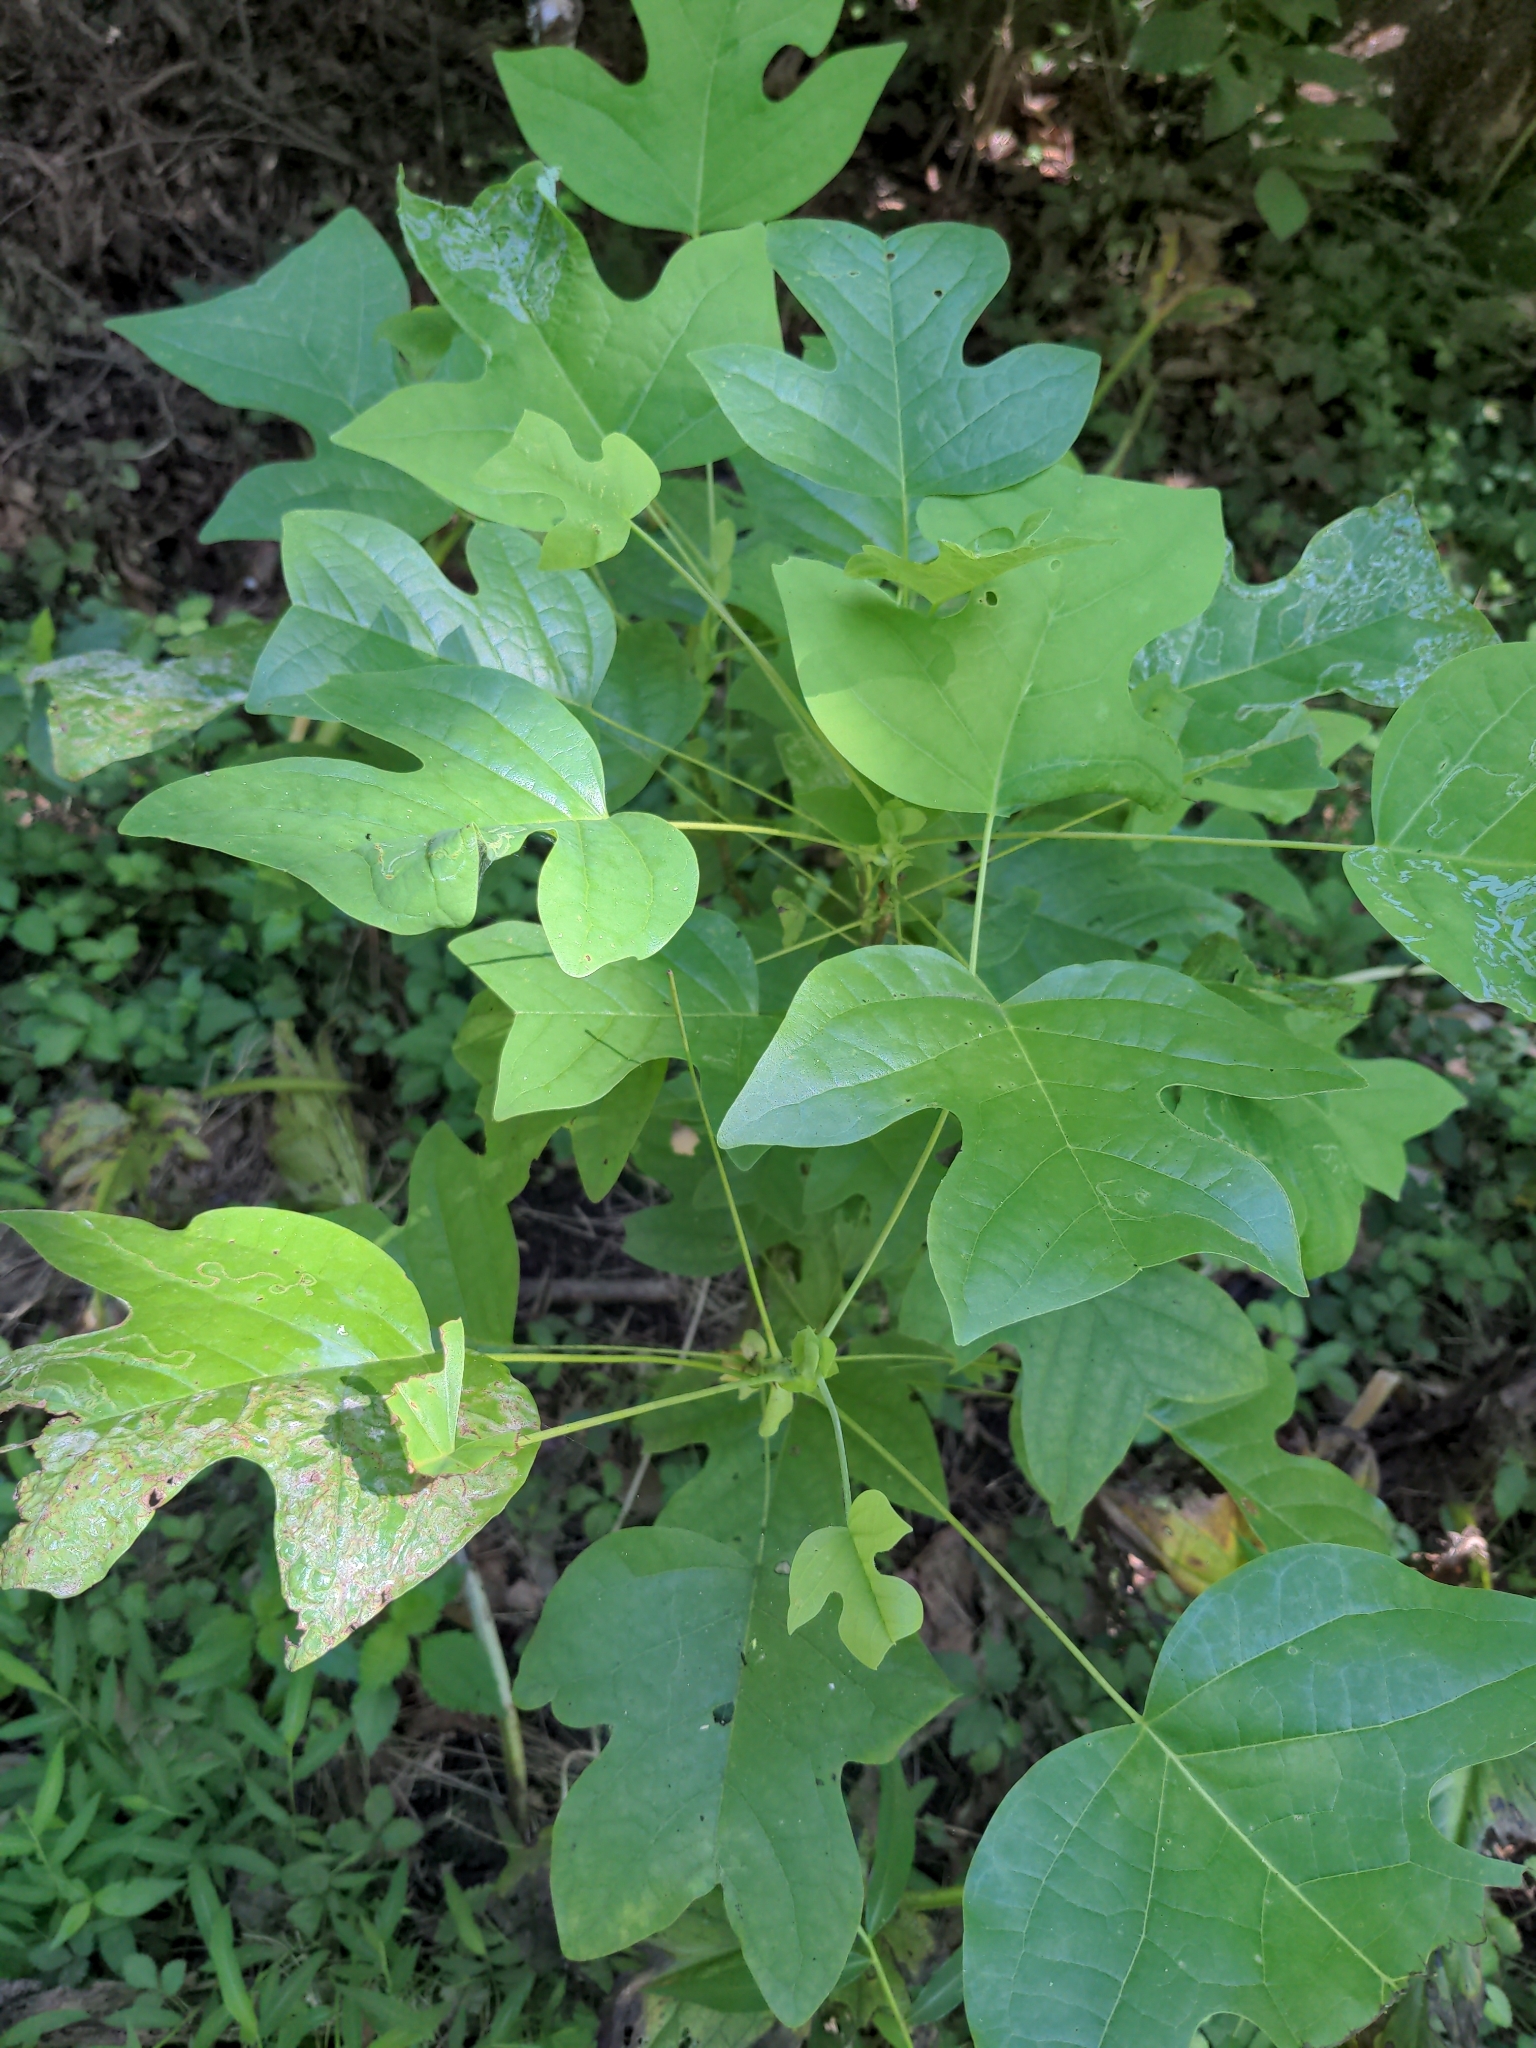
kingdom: Plantae
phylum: Tracheophyta
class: Magnoliopsida
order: Magnoliales
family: Magnoliaceae
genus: Liriodendron
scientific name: Liriodendron tulipifera
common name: Tulip tree
